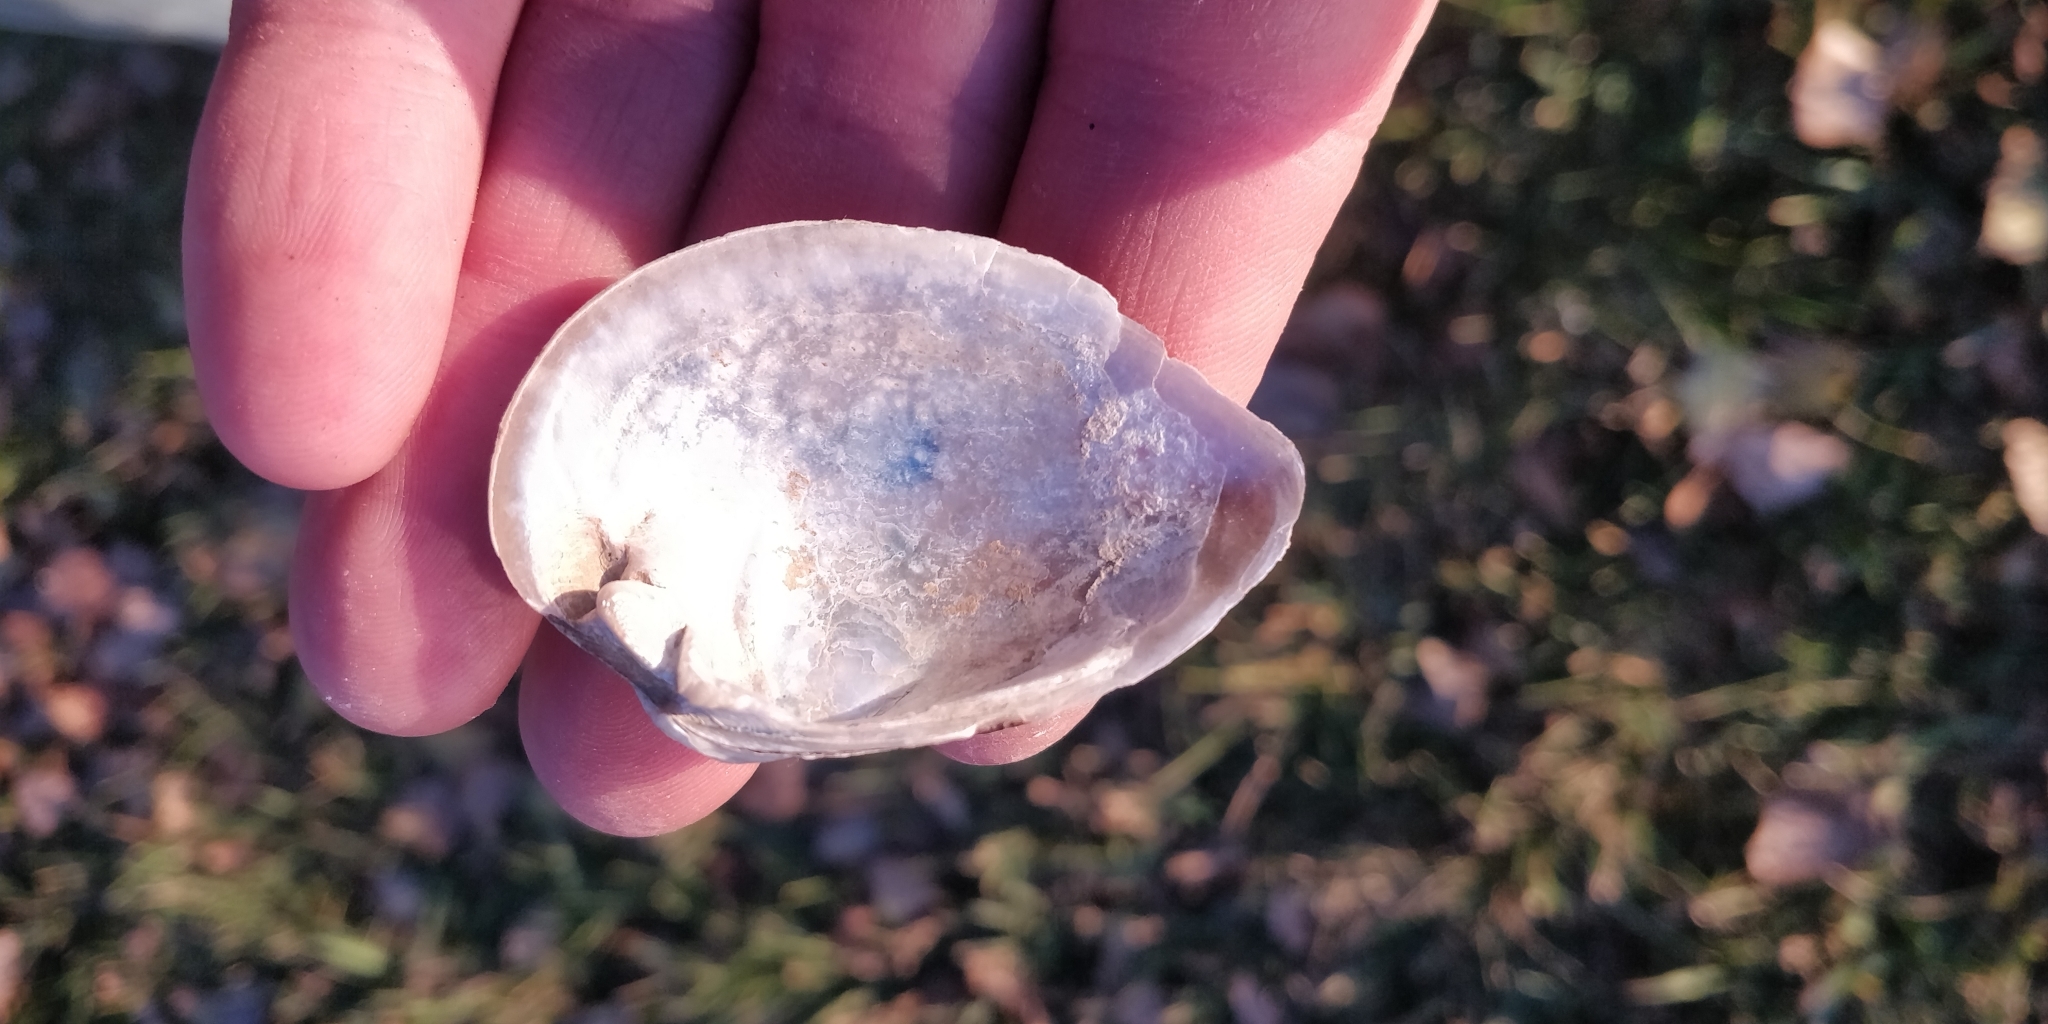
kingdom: Animalia
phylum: Mollusca
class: Bivalvia
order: Unionida
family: Unionidae
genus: Truncilla
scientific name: Truncilla truncata
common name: Deertoe
